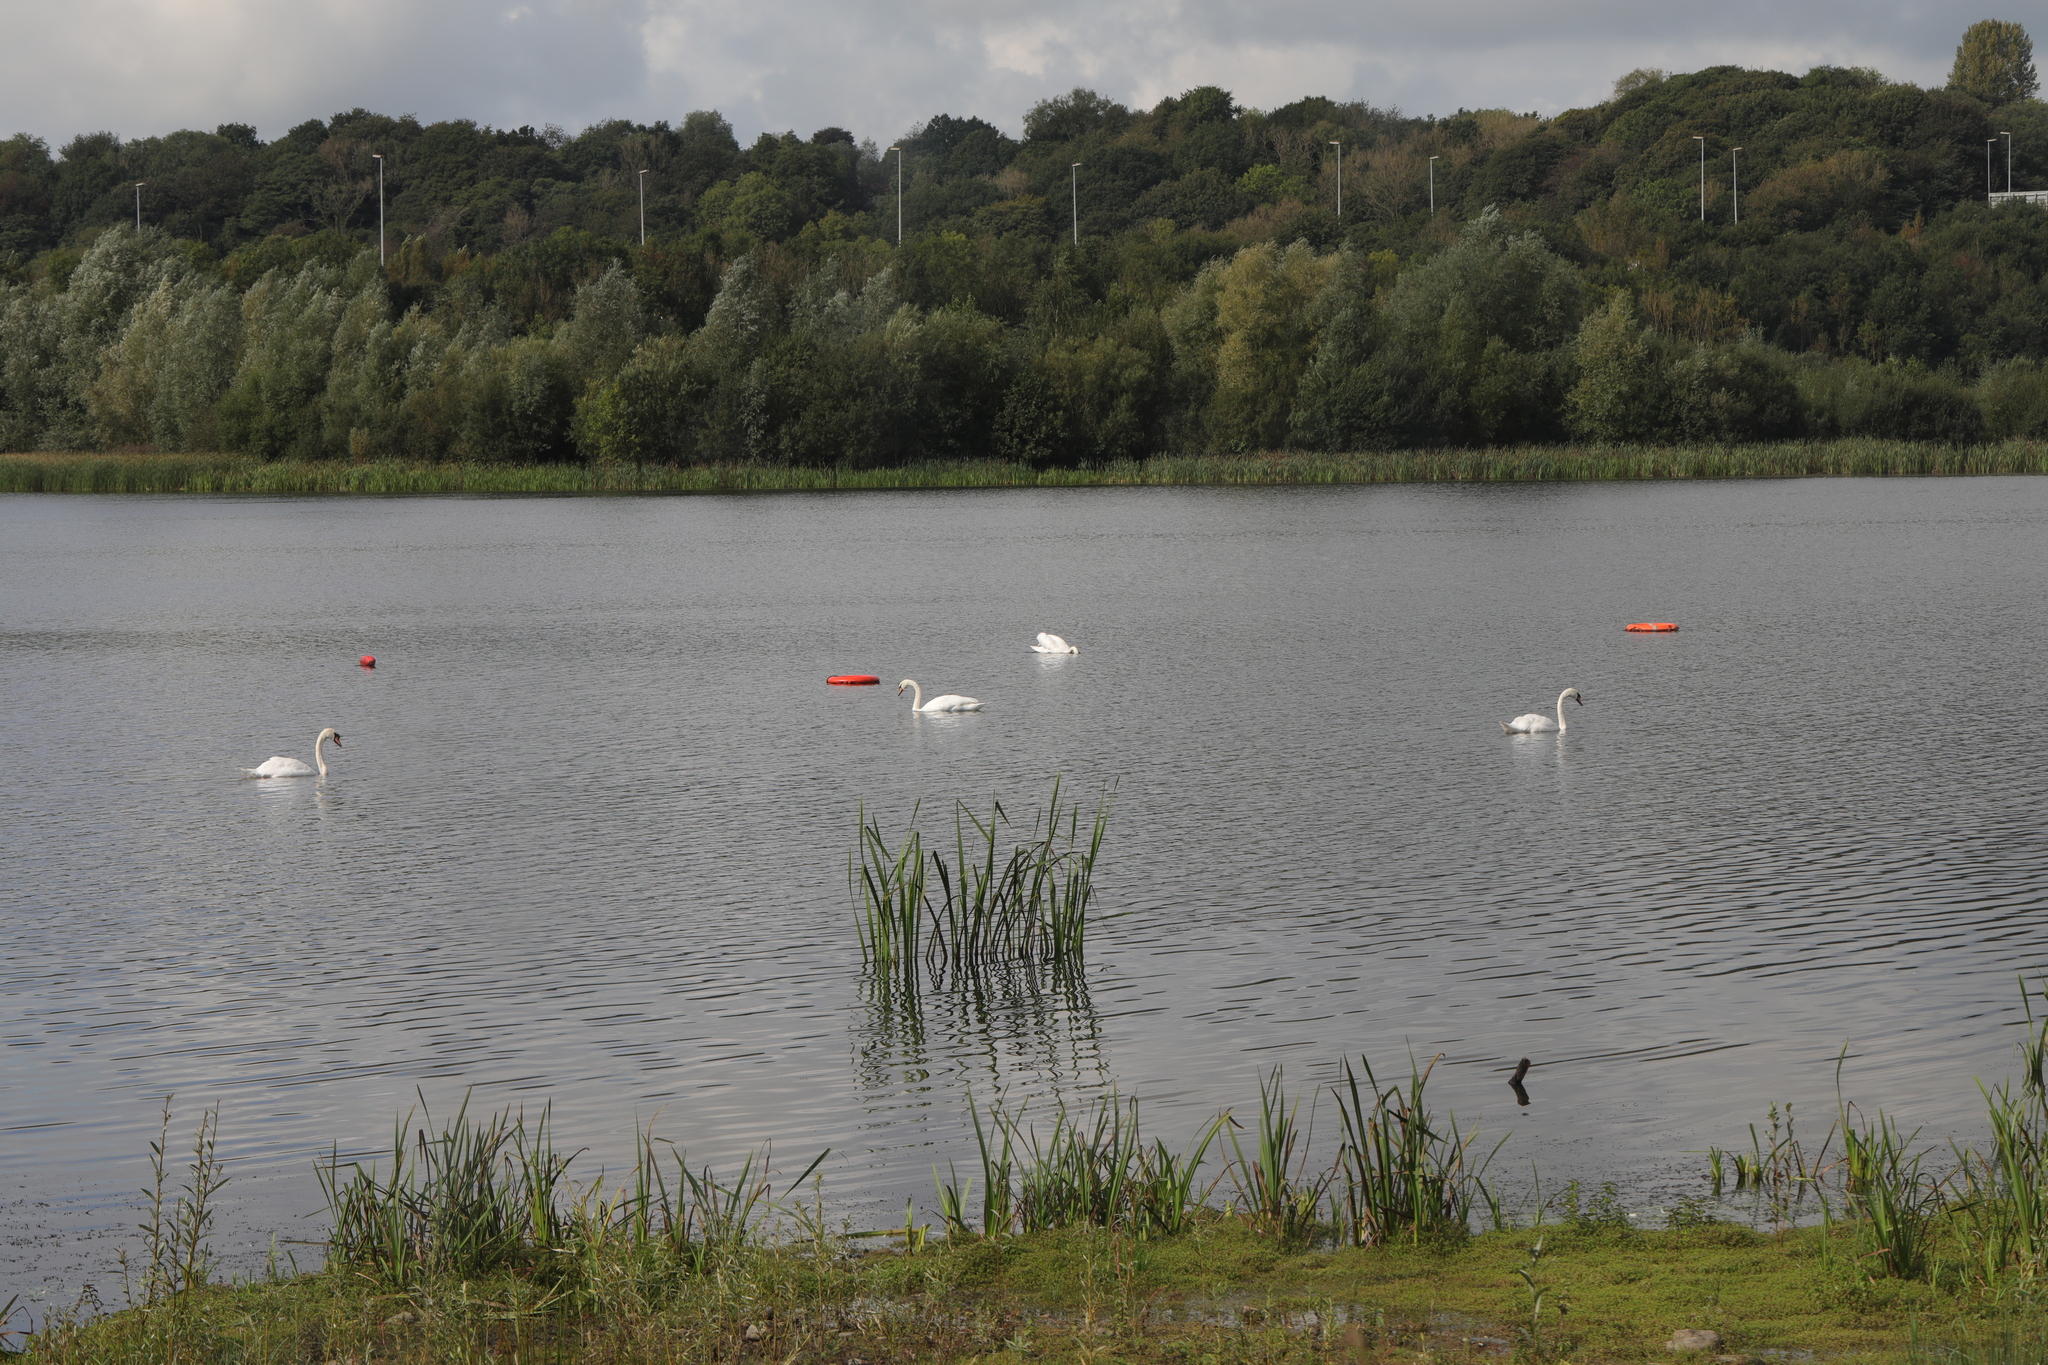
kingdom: Animalia
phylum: Chordata
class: Aves
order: Anseriformes
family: Anatidae
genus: Cygnus
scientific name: Cygnus olor
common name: Mute swan
